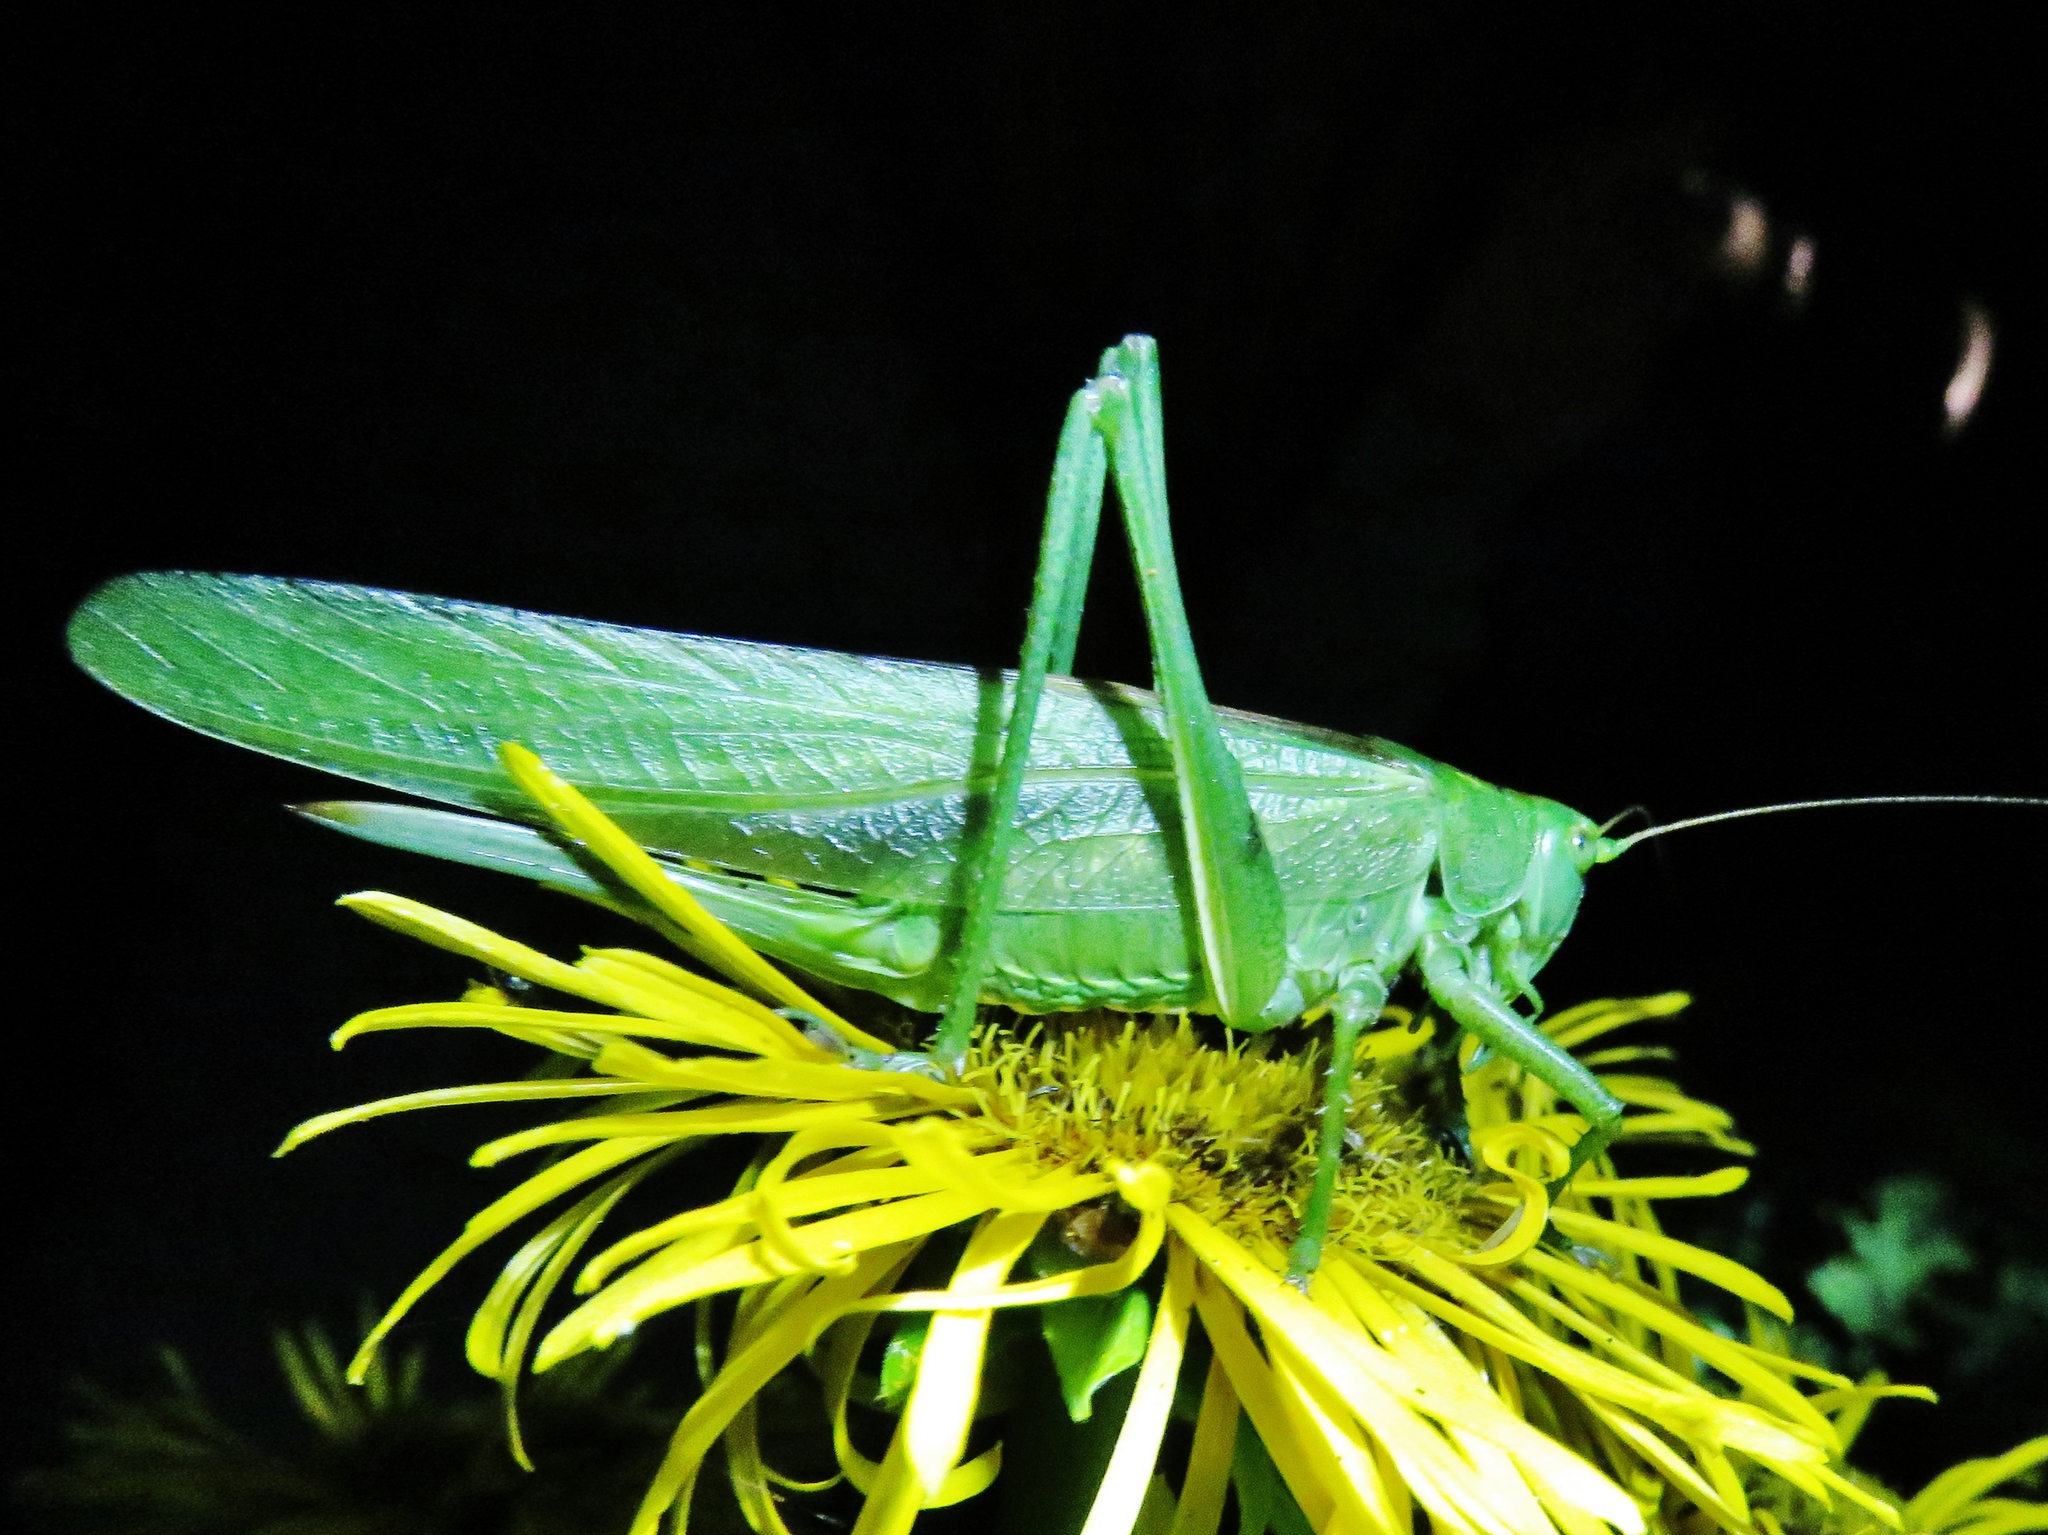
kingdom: Animalia
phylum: Arthropoda
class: Insecta
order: Orthoptera
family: Tettigoniidae
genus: Tettigonia
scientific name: Tettigonia viridissima
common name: Great green bush-cricket
